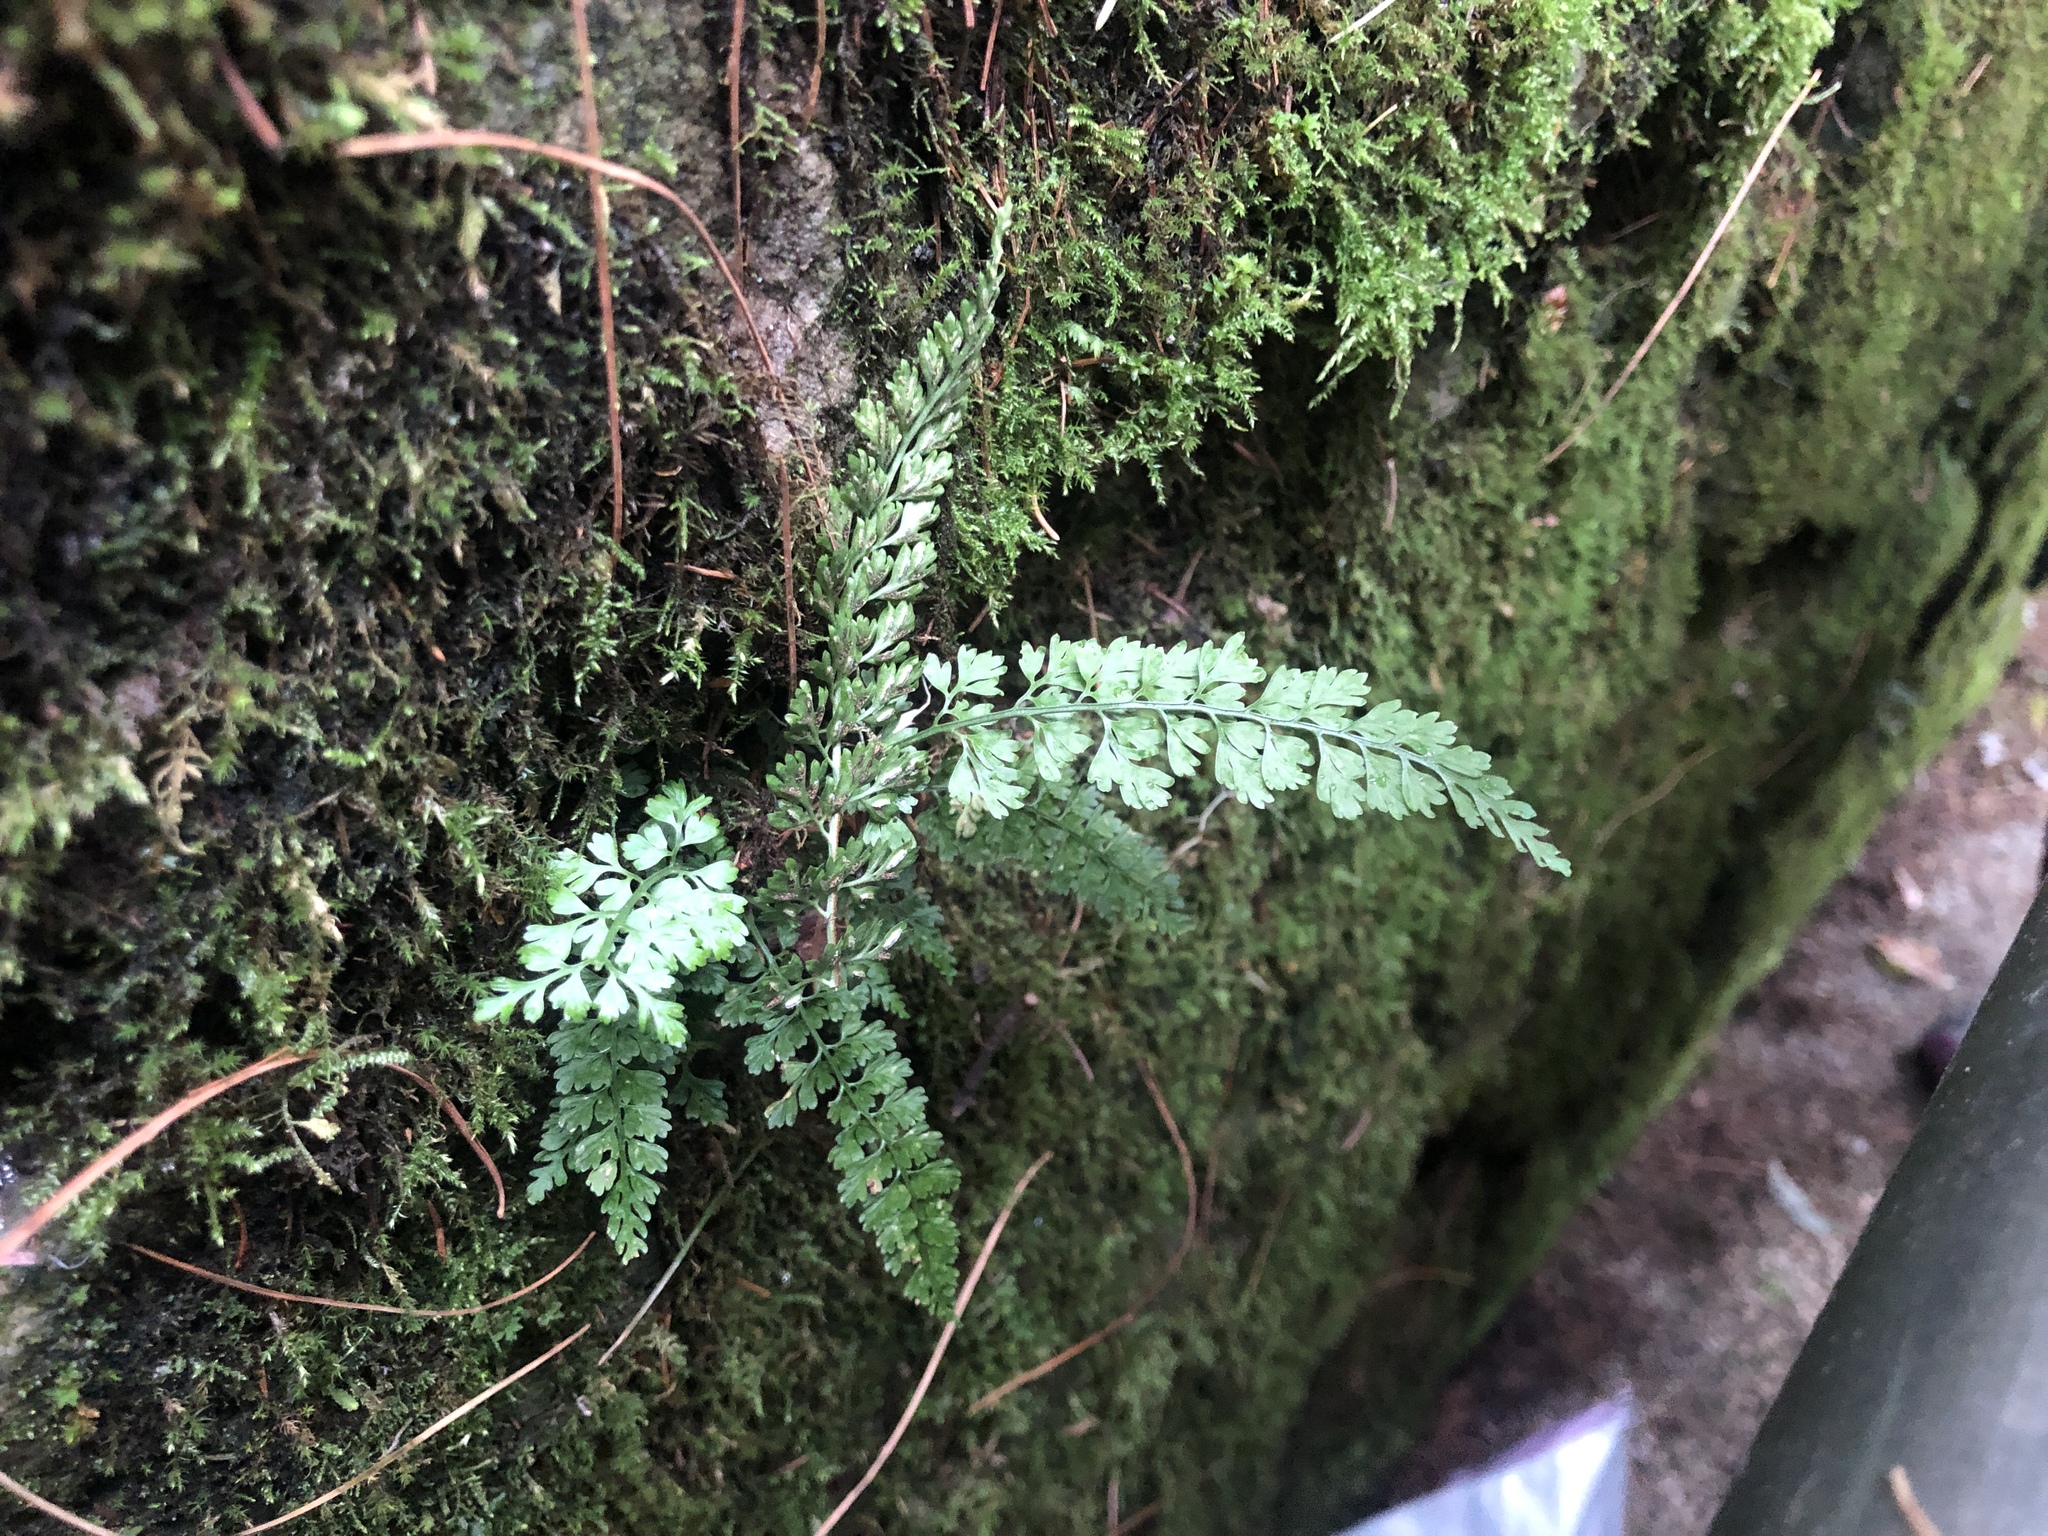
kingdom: Plantae
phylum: Tracheophyta
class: Polypodiopsida
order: Polypodiales
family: Aspleniaceae
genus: Asplenium
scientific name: Asplenium laciniatum
